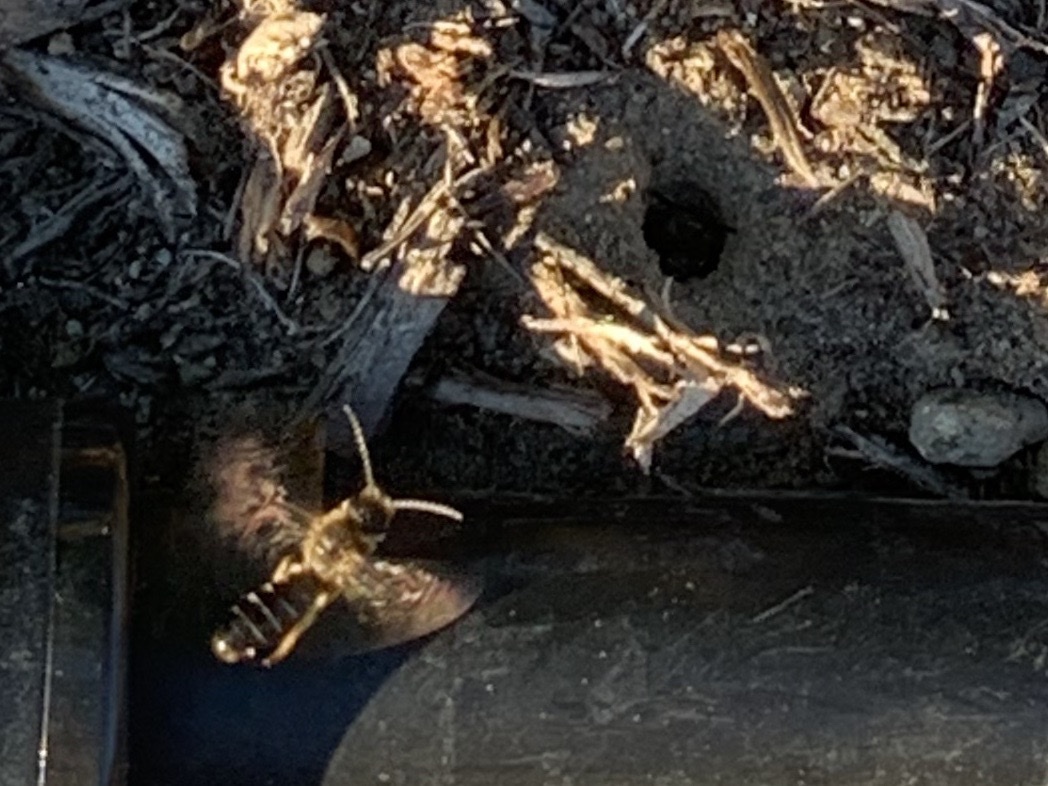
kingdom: Animalia
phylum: Arthropoda
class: Insecta
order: Hymenoptera
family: Halictidae
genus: Halictus
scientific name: Halictus rubicundus
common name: Orange-legged furrow bee
